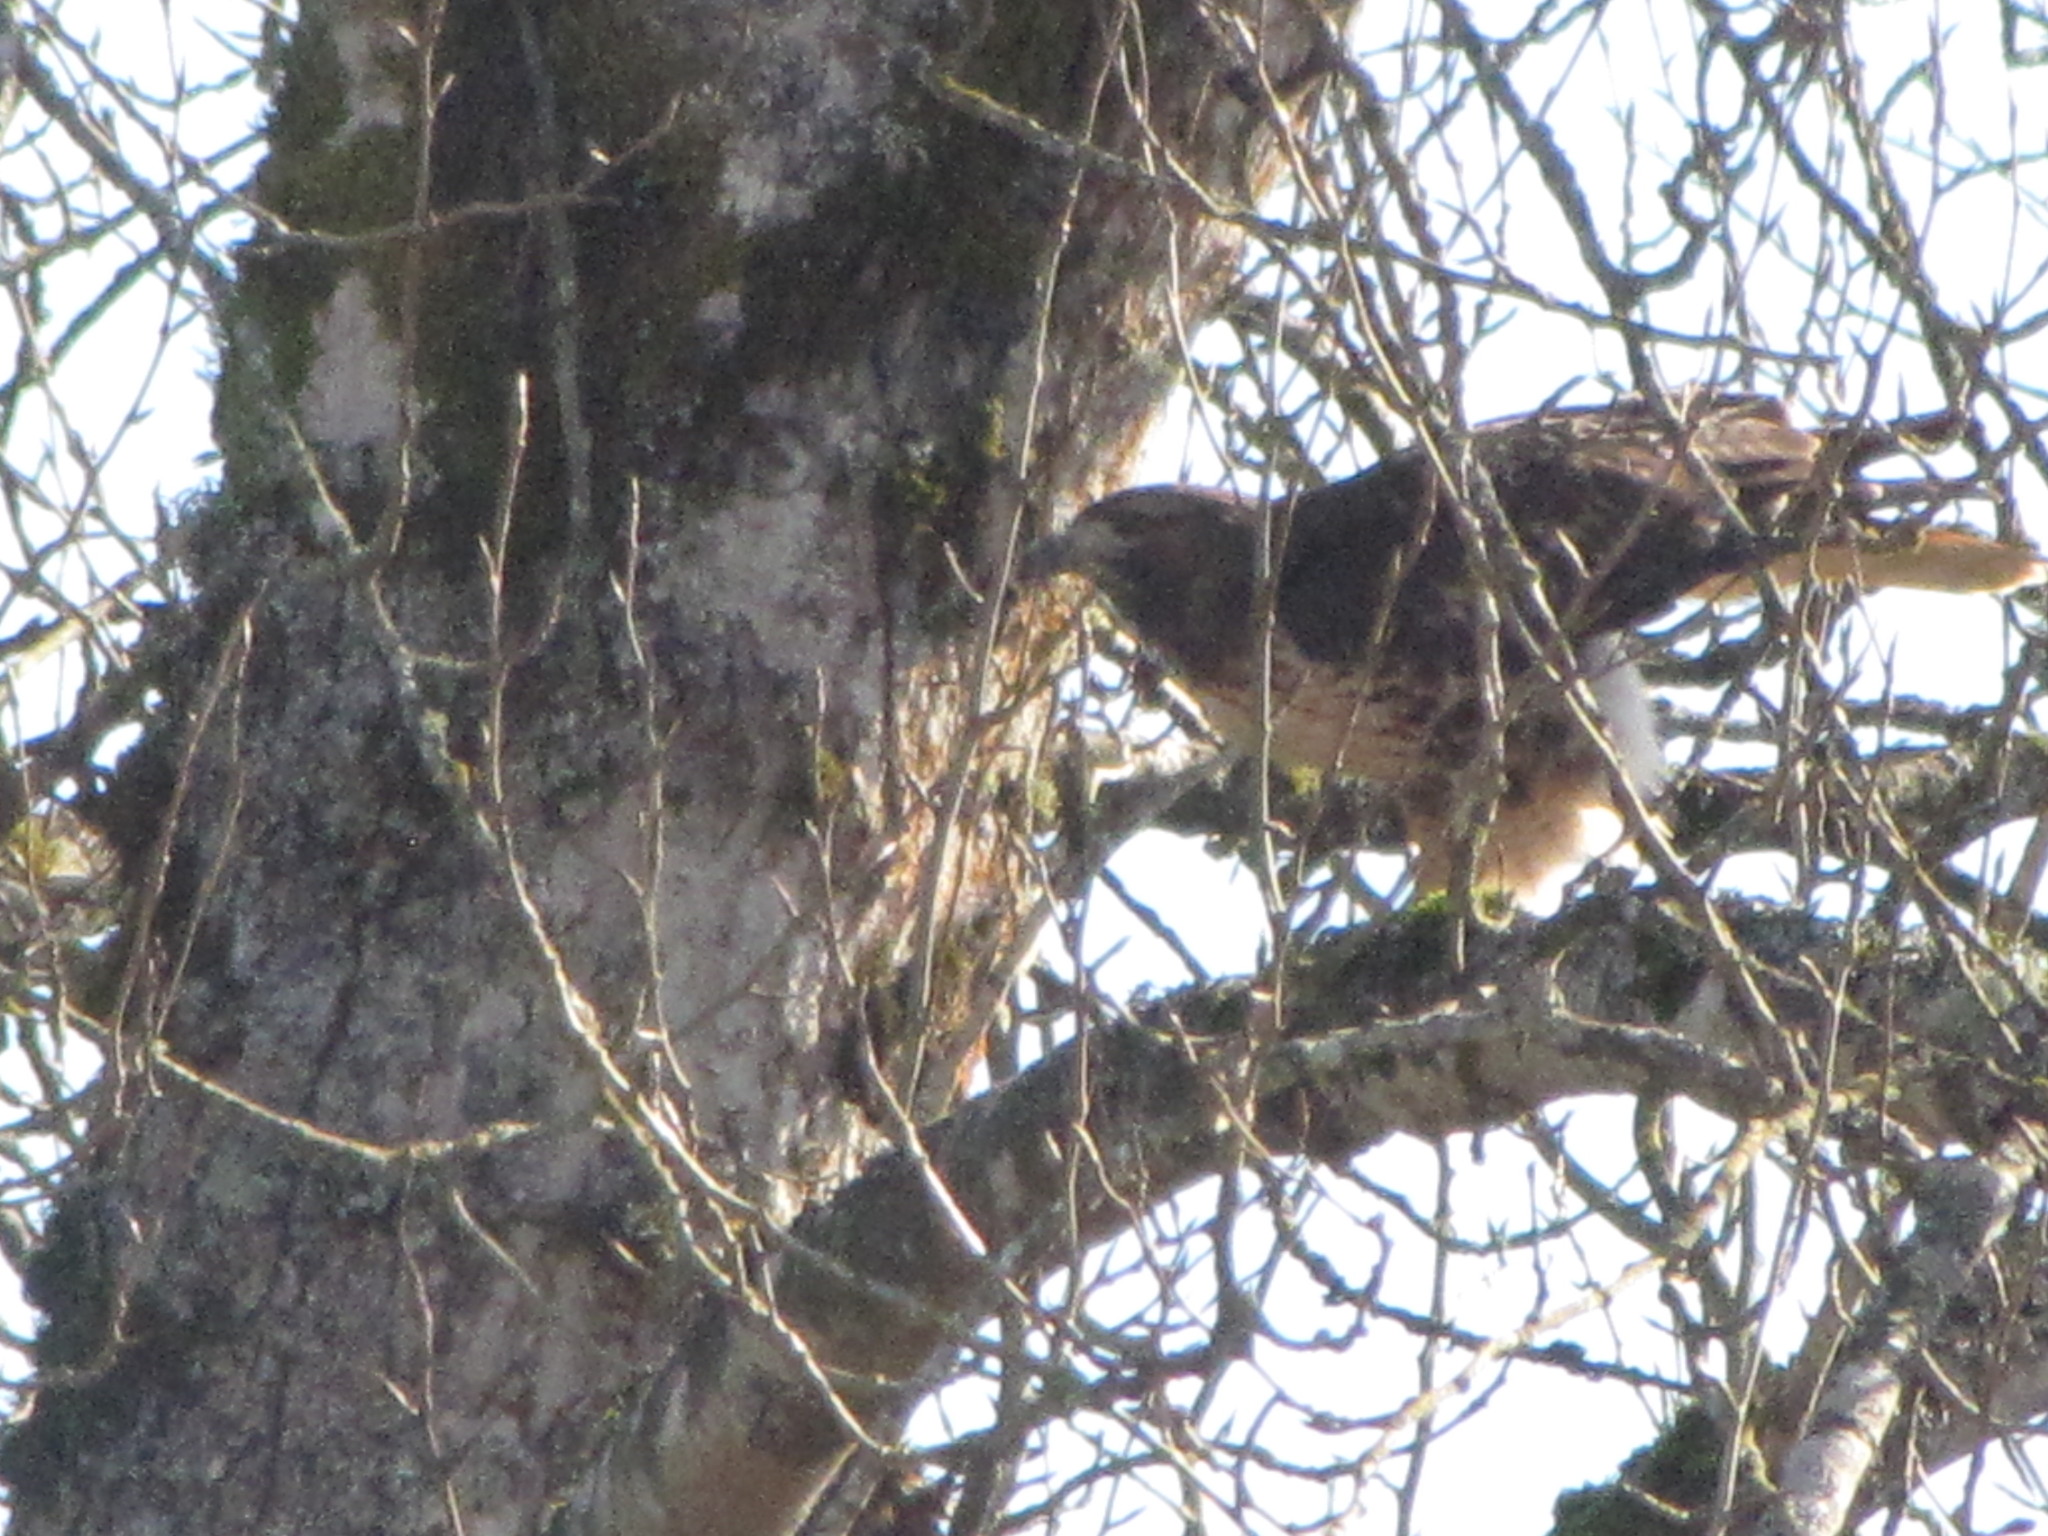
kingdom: Animalia
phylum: Chordata
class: Aves
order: Accipitriformes
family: Accipitridae
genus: Buteo
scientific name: Buteo jamaicensis
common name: Red-tailed hawk
